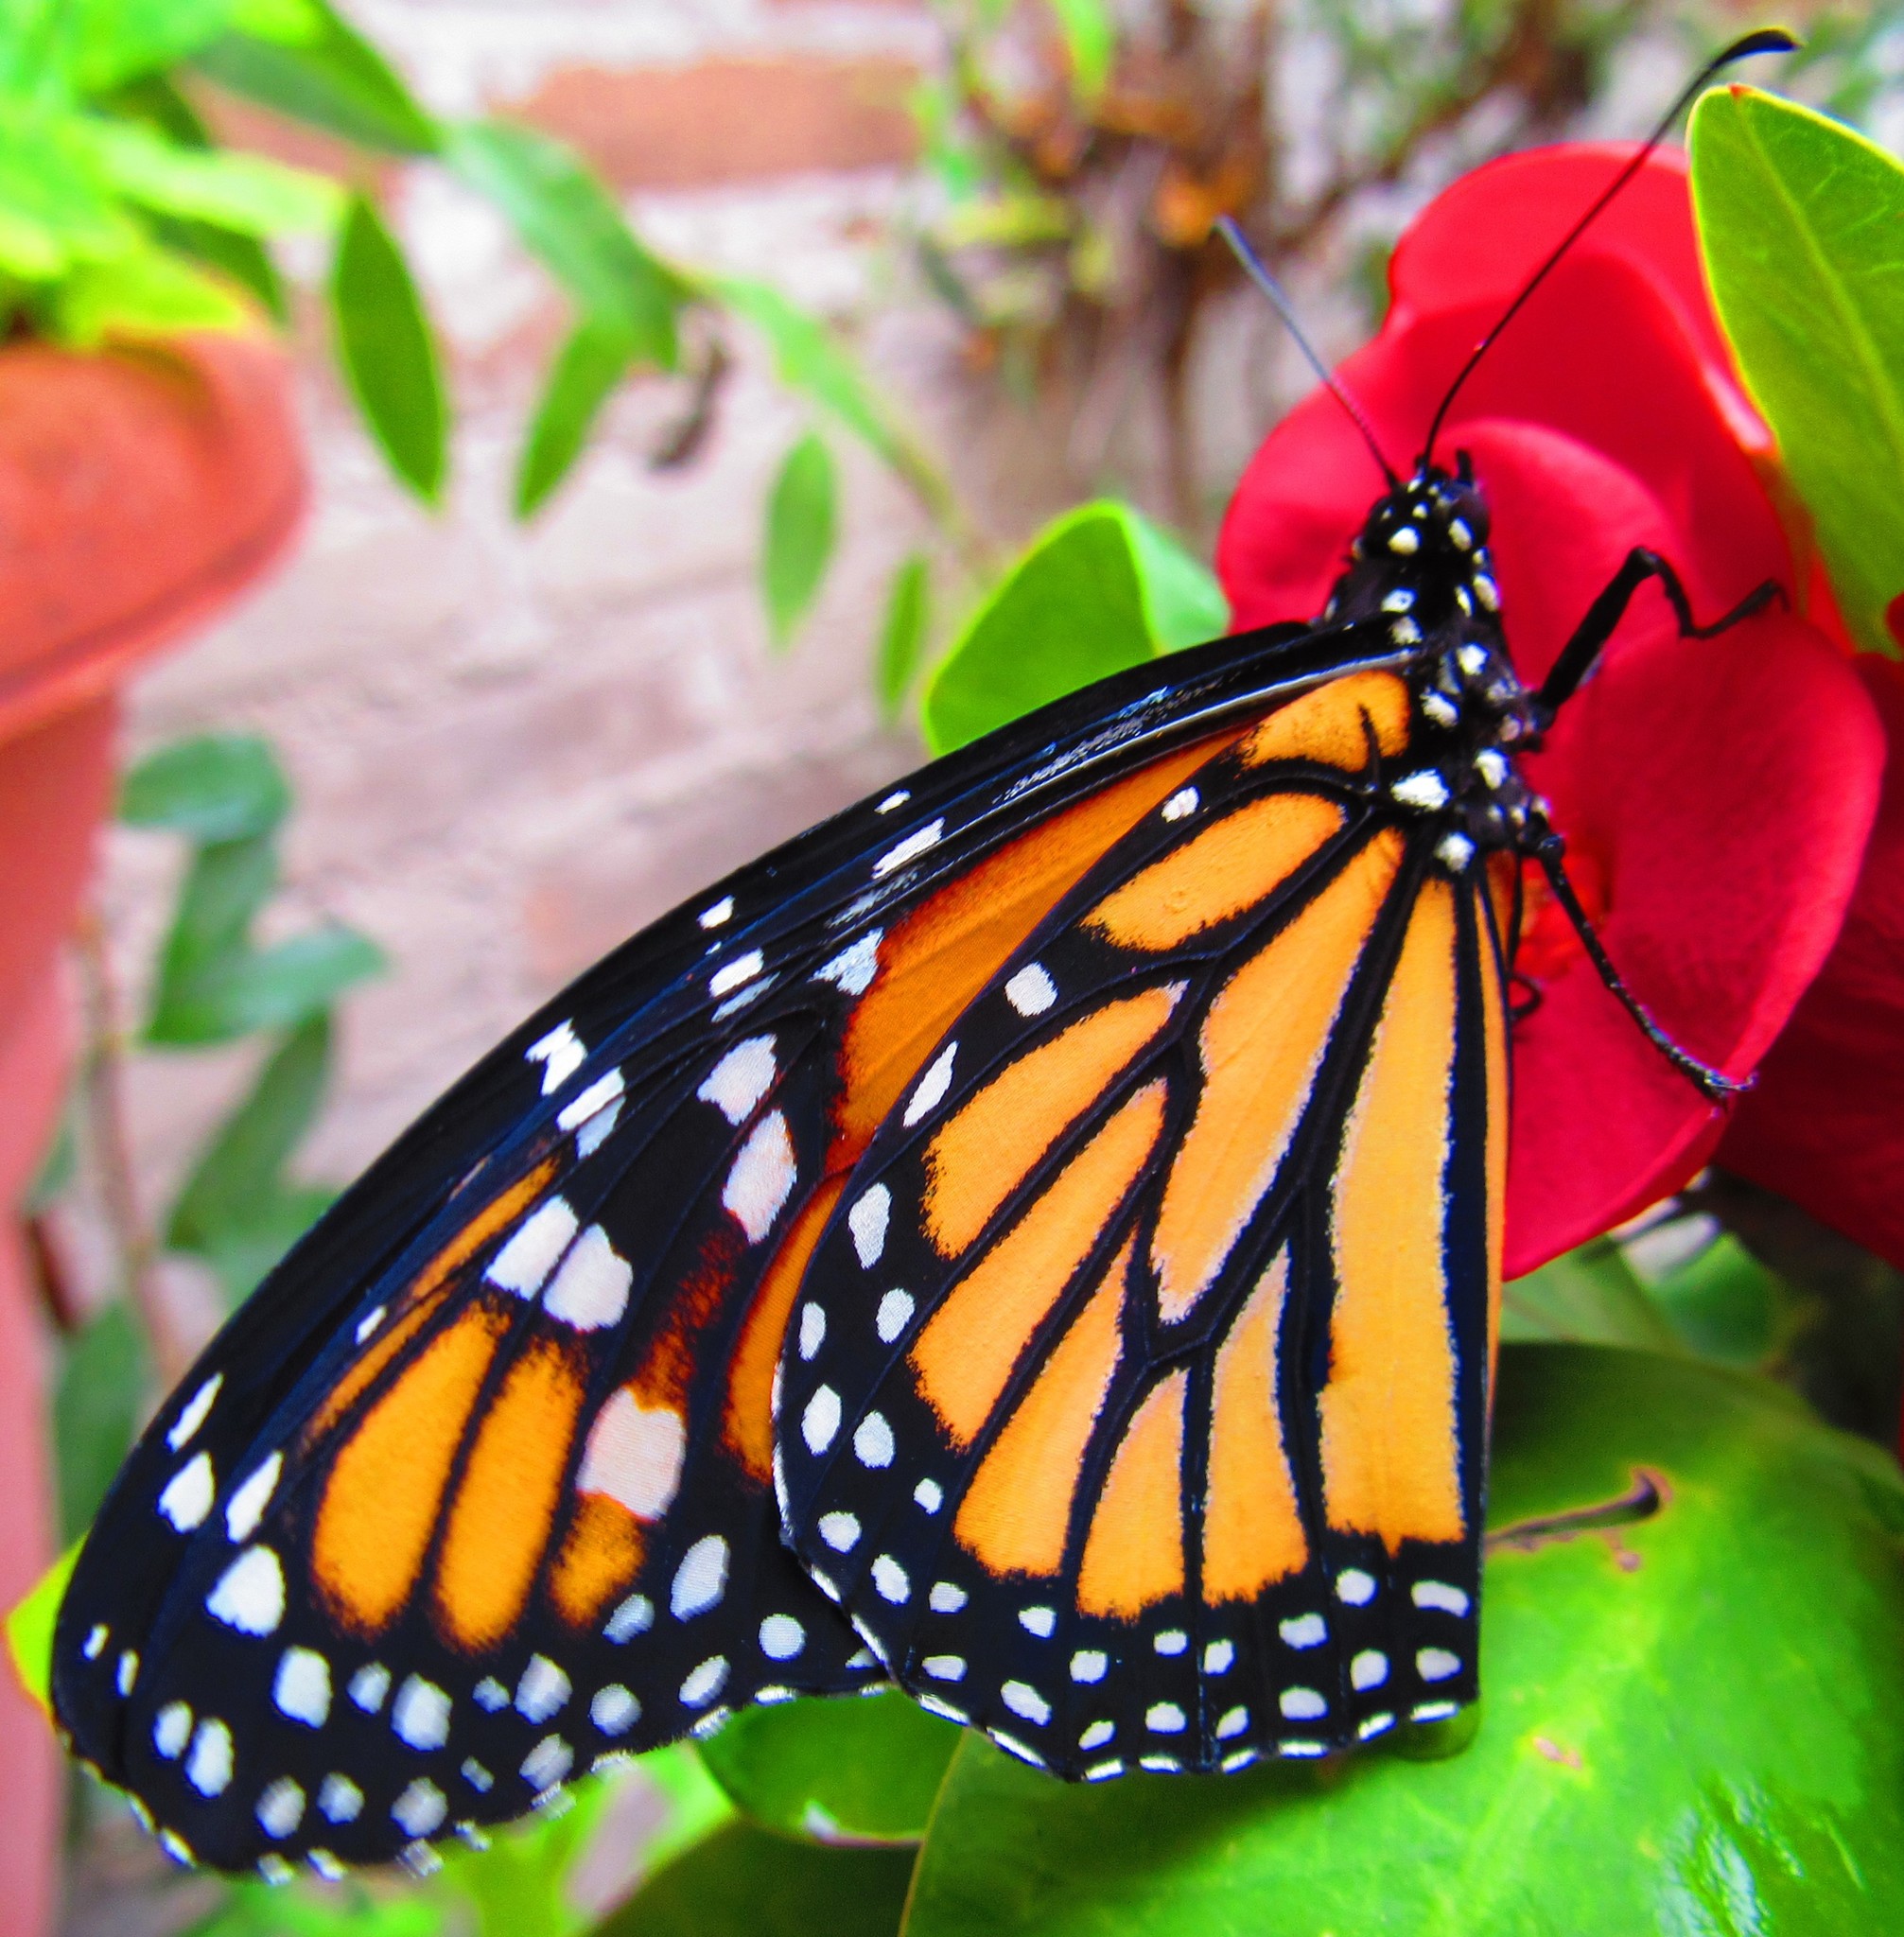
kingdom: Animalia
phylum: Arthropoda
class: Insecta
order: Lepidoptera
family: Nymphalidae
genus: Danaus
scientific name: Danaus plexippus
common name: Monarch
